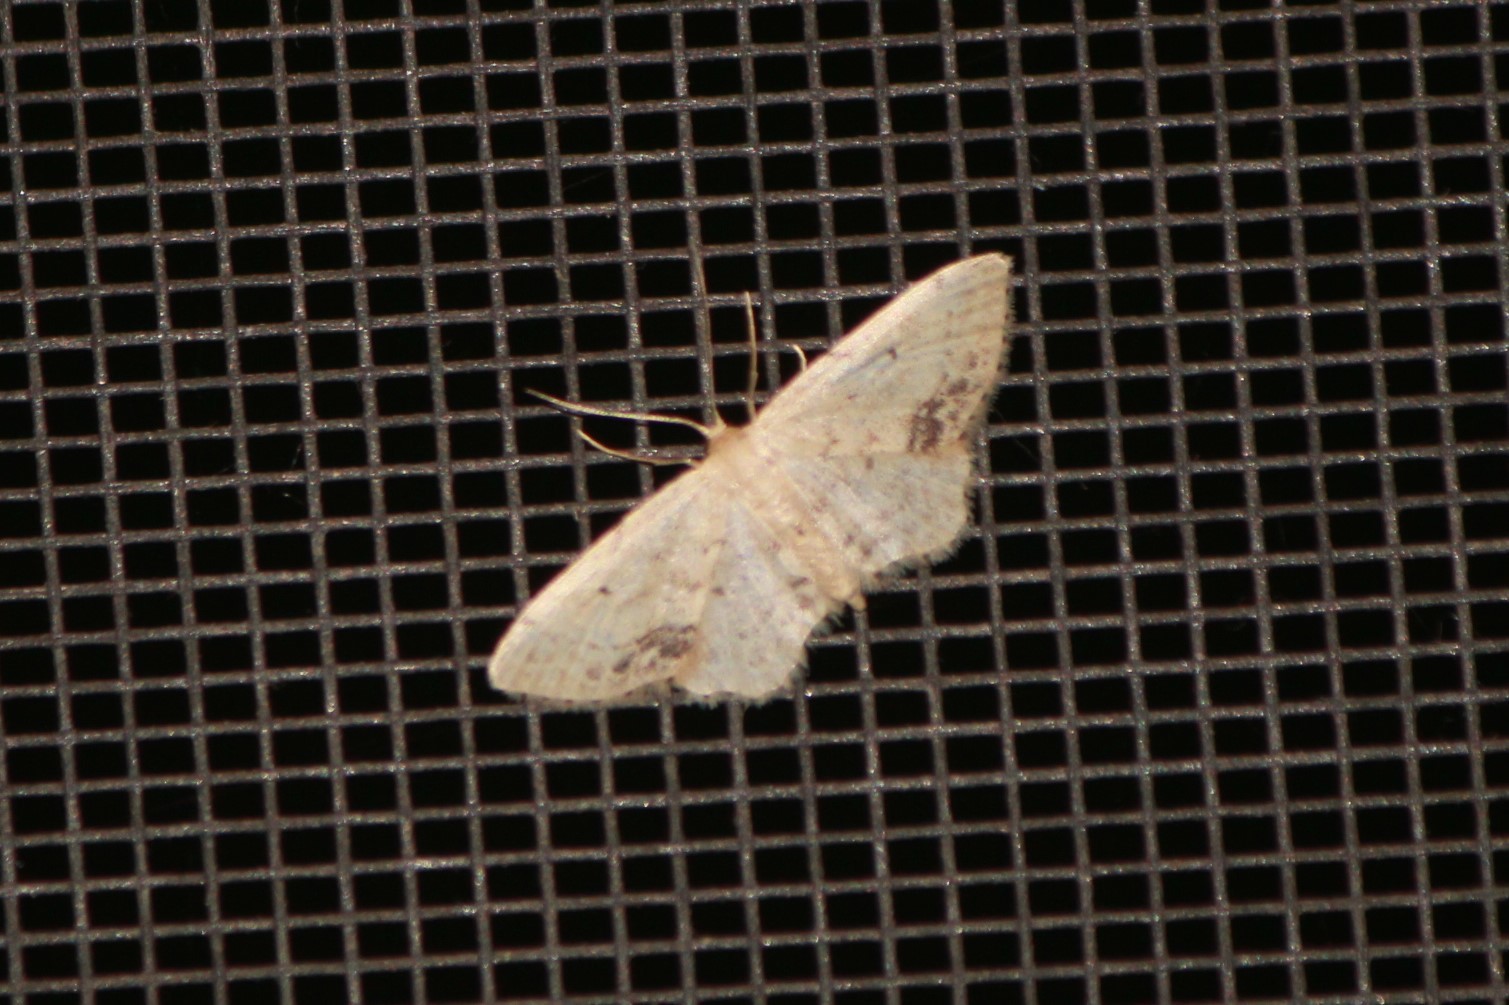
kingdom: Animalia
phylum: Arthropoda
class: Insecta
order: Lepidoptera
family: Geometridae
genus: Idaea
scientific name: Idaea dimidiata
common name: Single-dotted wave
